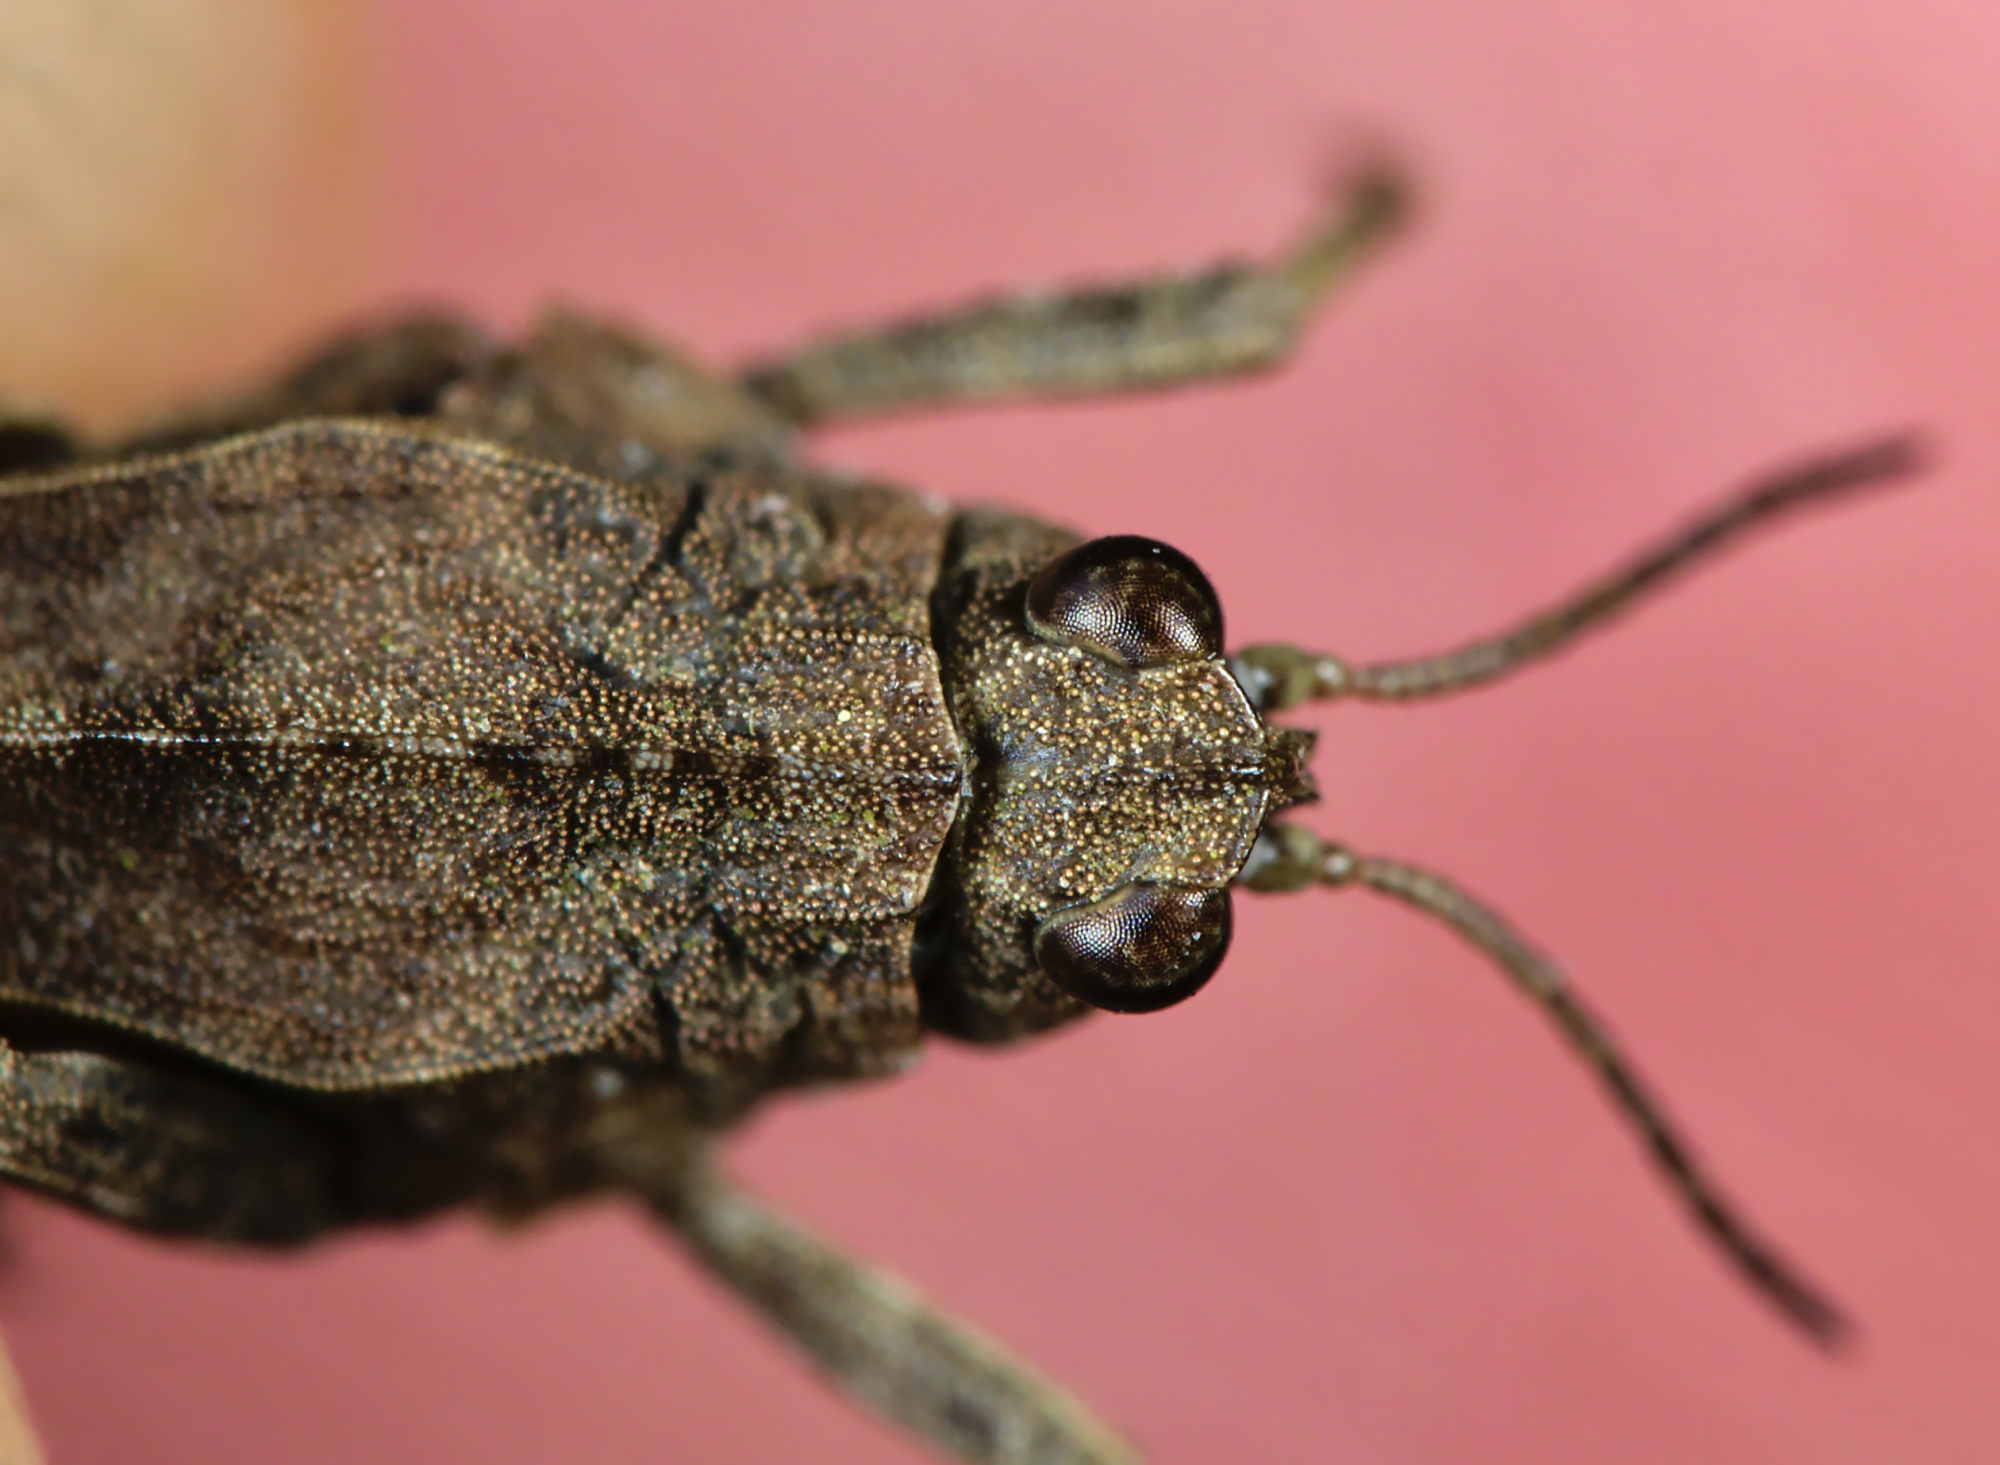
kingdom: Animalia
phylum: Arthropoda
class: Insecta
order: Orthoptera
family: Tetrigidae
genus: Tetrix
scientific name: Tetrix undulata
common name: Common groundhopper
